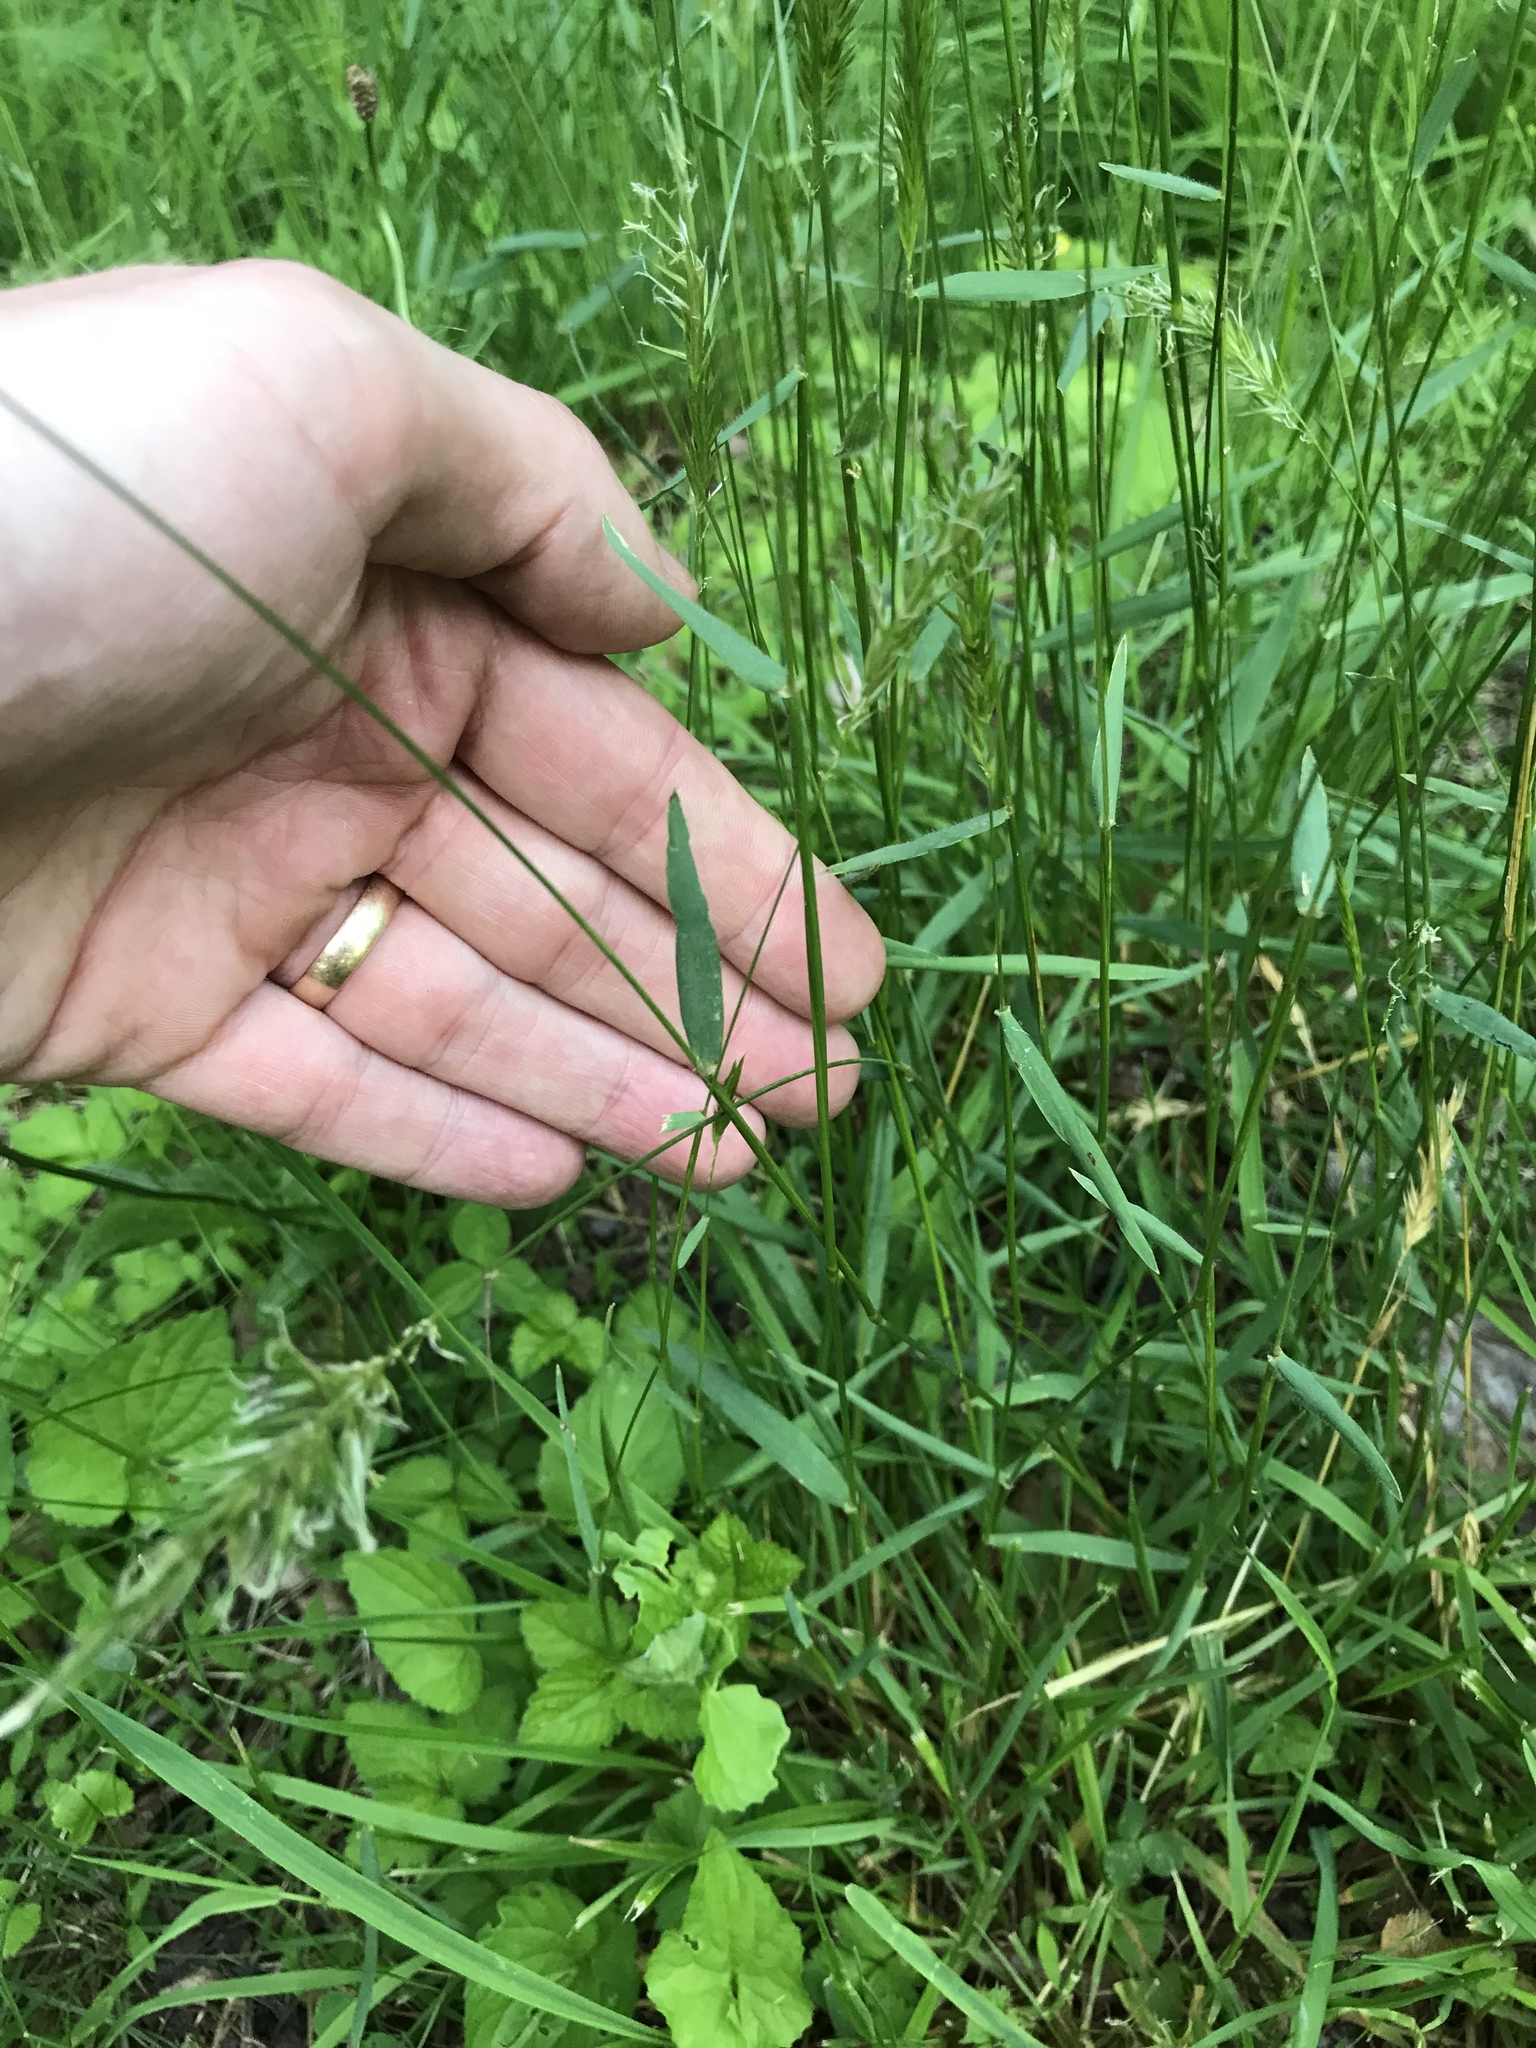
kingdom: Plantae
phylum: Tracheophyta
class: Liliopsida
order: Poales
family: Poaceae
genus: Anthoxanthum
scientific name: Anthoxanthum odoratum
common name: Sweet vernalgrass
